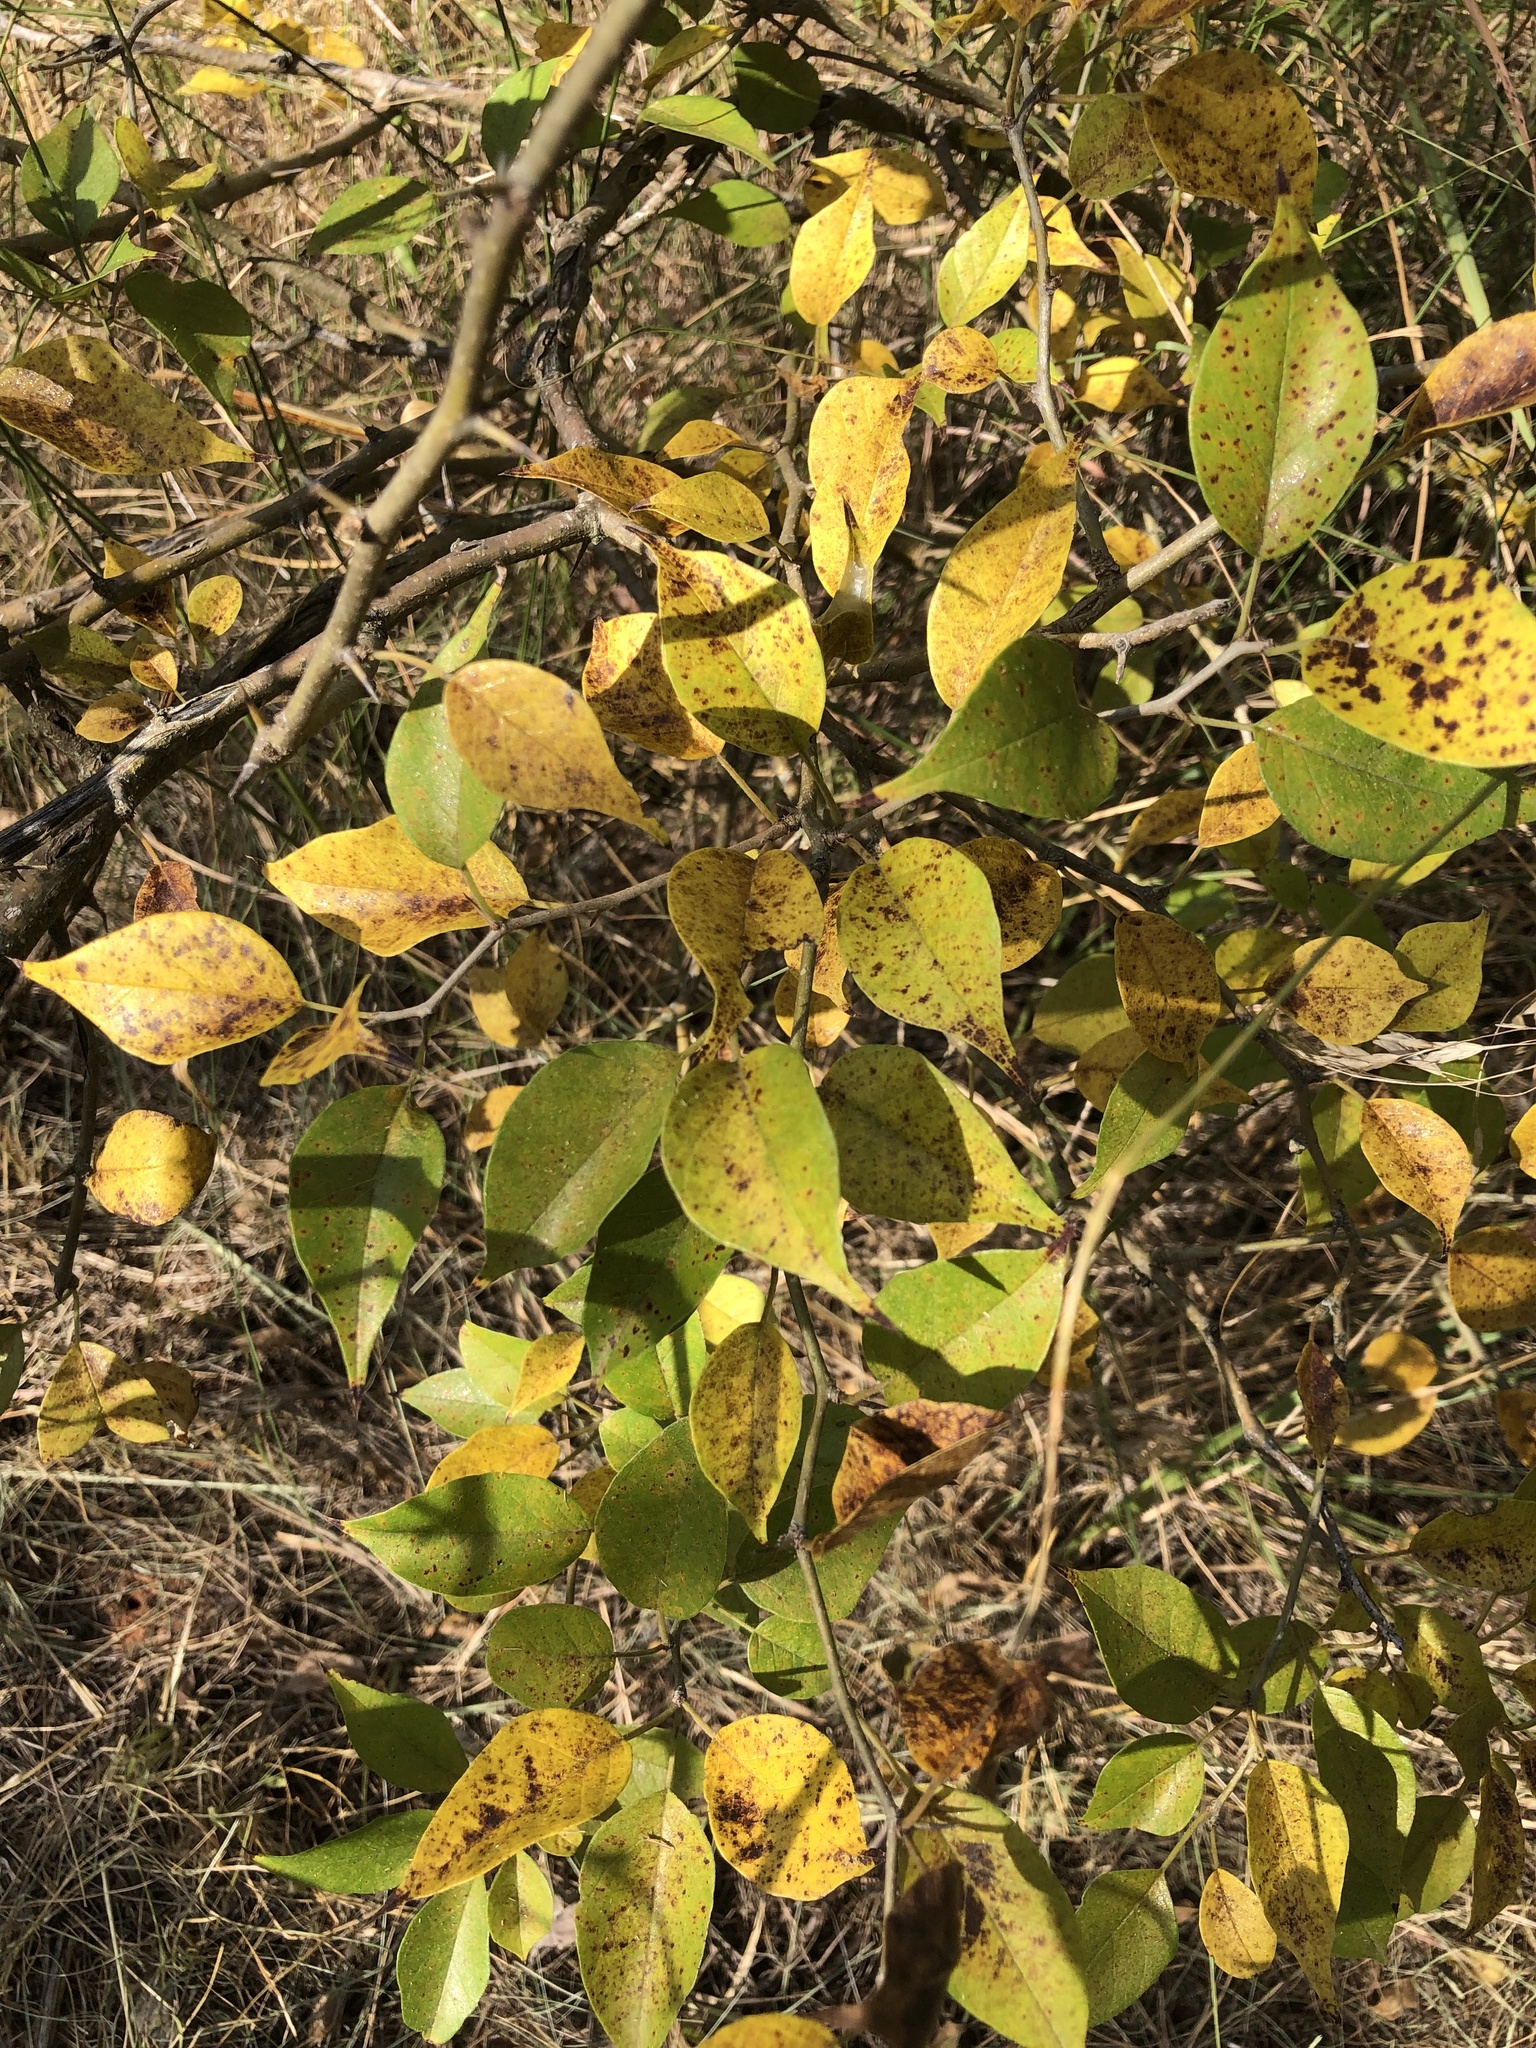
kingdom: Plantae
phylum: Tracheophyta
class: Magnoliopsida
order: Rosales
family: Moraceae
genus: Maclura
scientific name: Maclura pomifera
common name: Osage-orange
